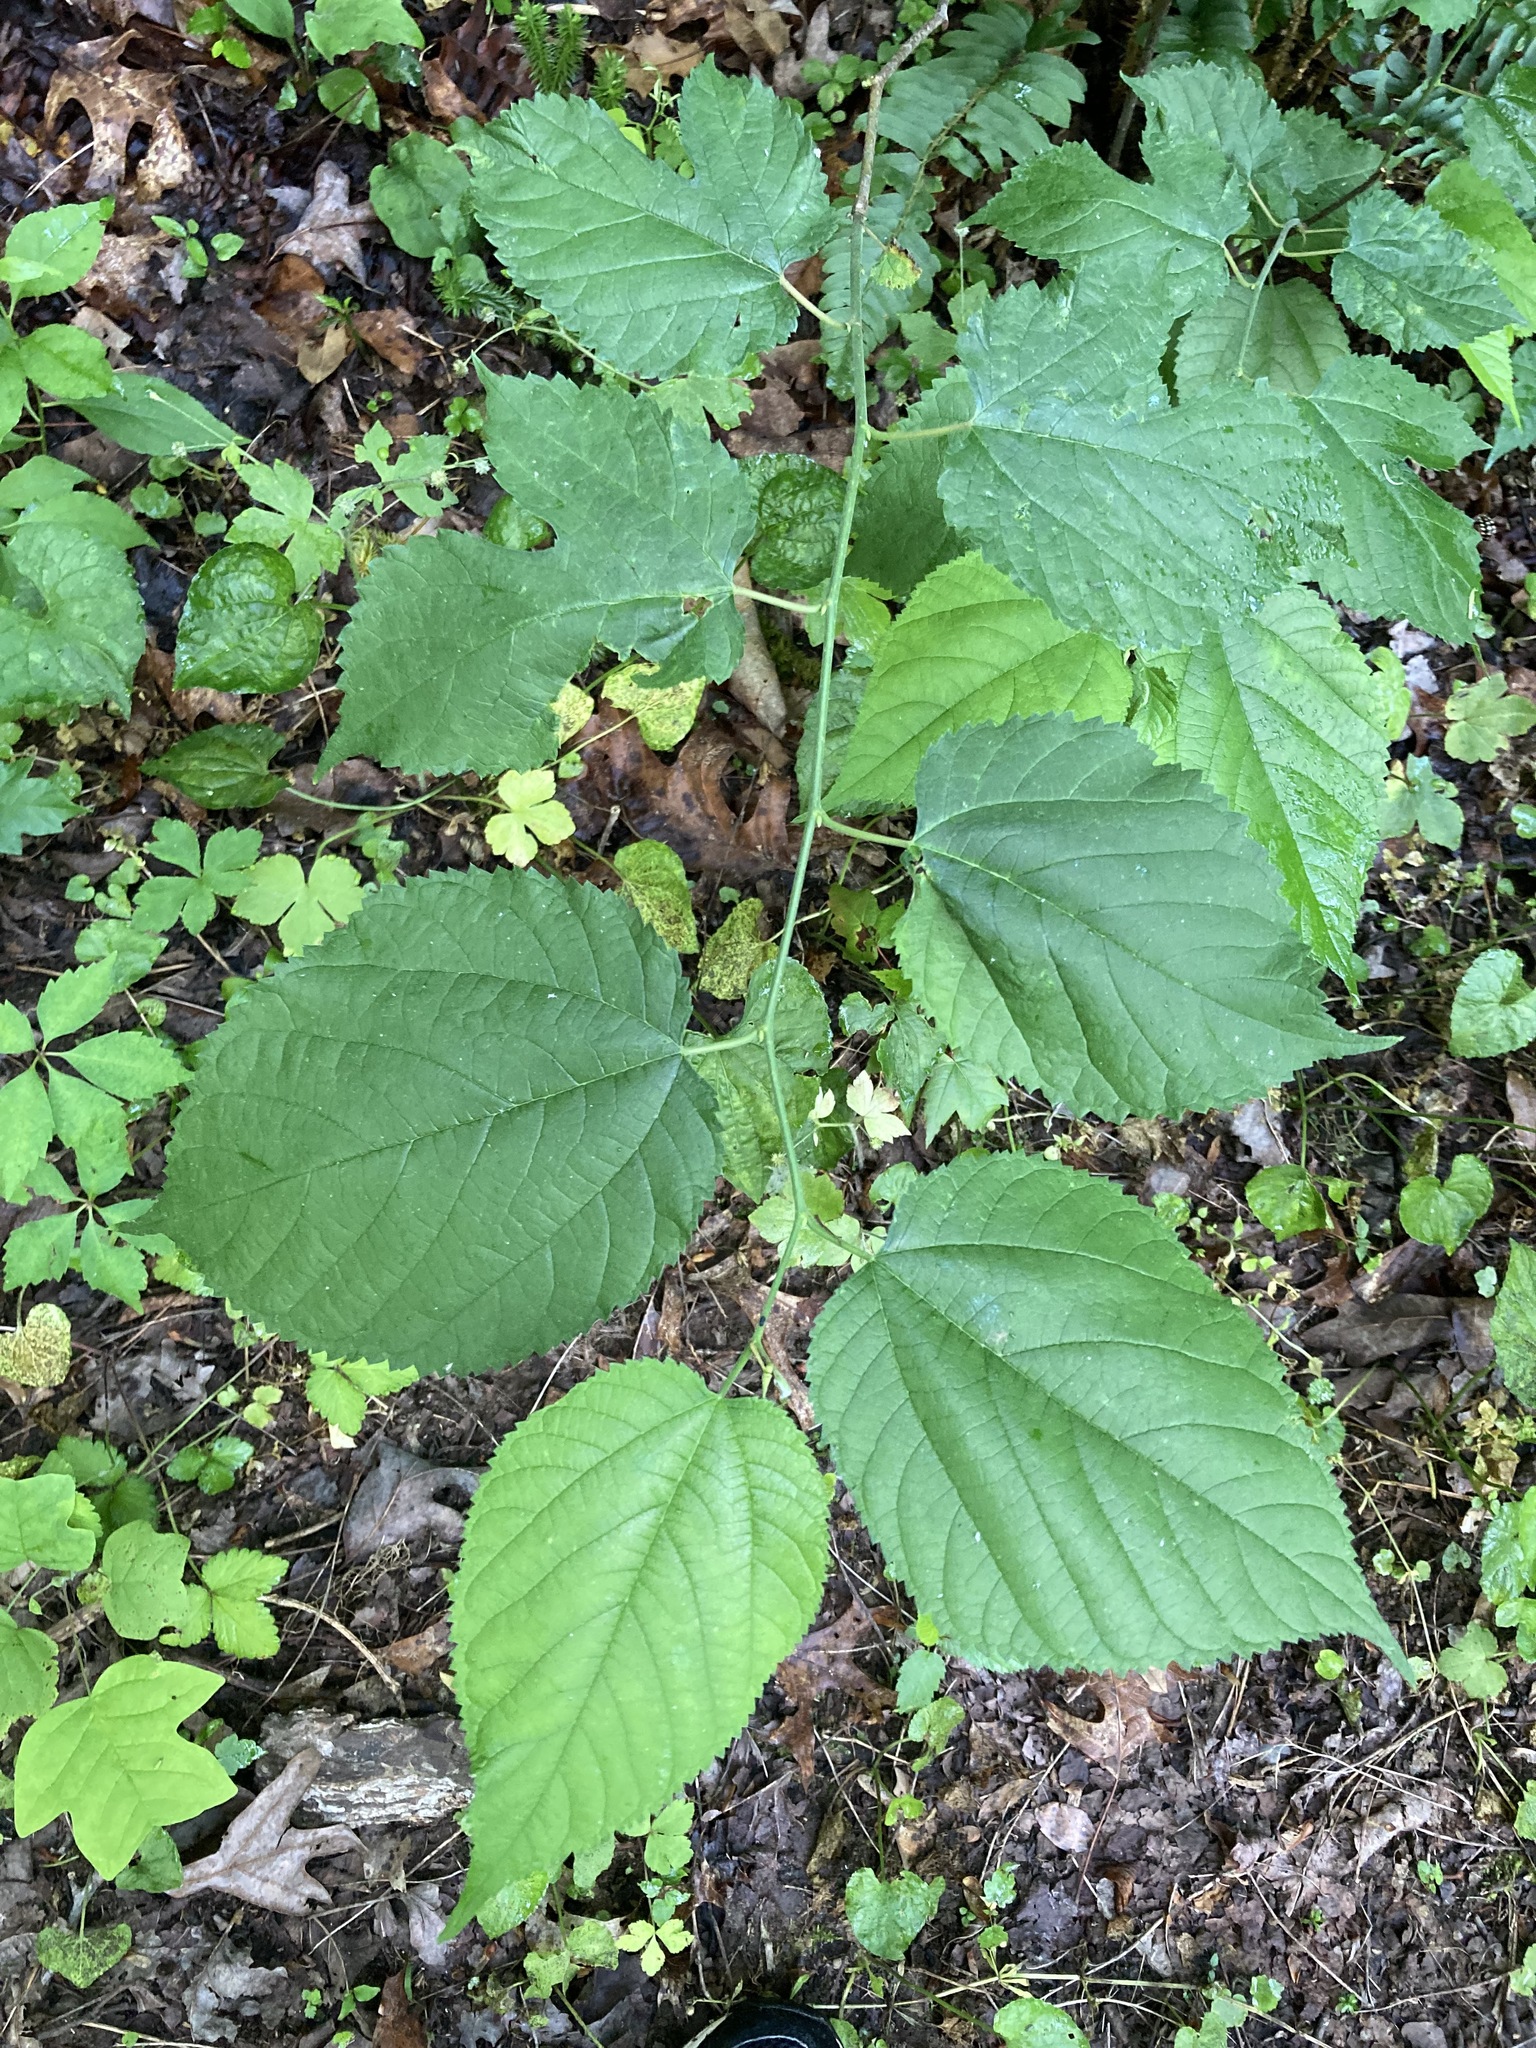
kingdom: Plantae
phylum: Tracheophyta
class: Magnoliopsida
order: Rosales
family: Moraceae
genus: Morus
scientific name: Morus rubra
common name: Red mulberry
